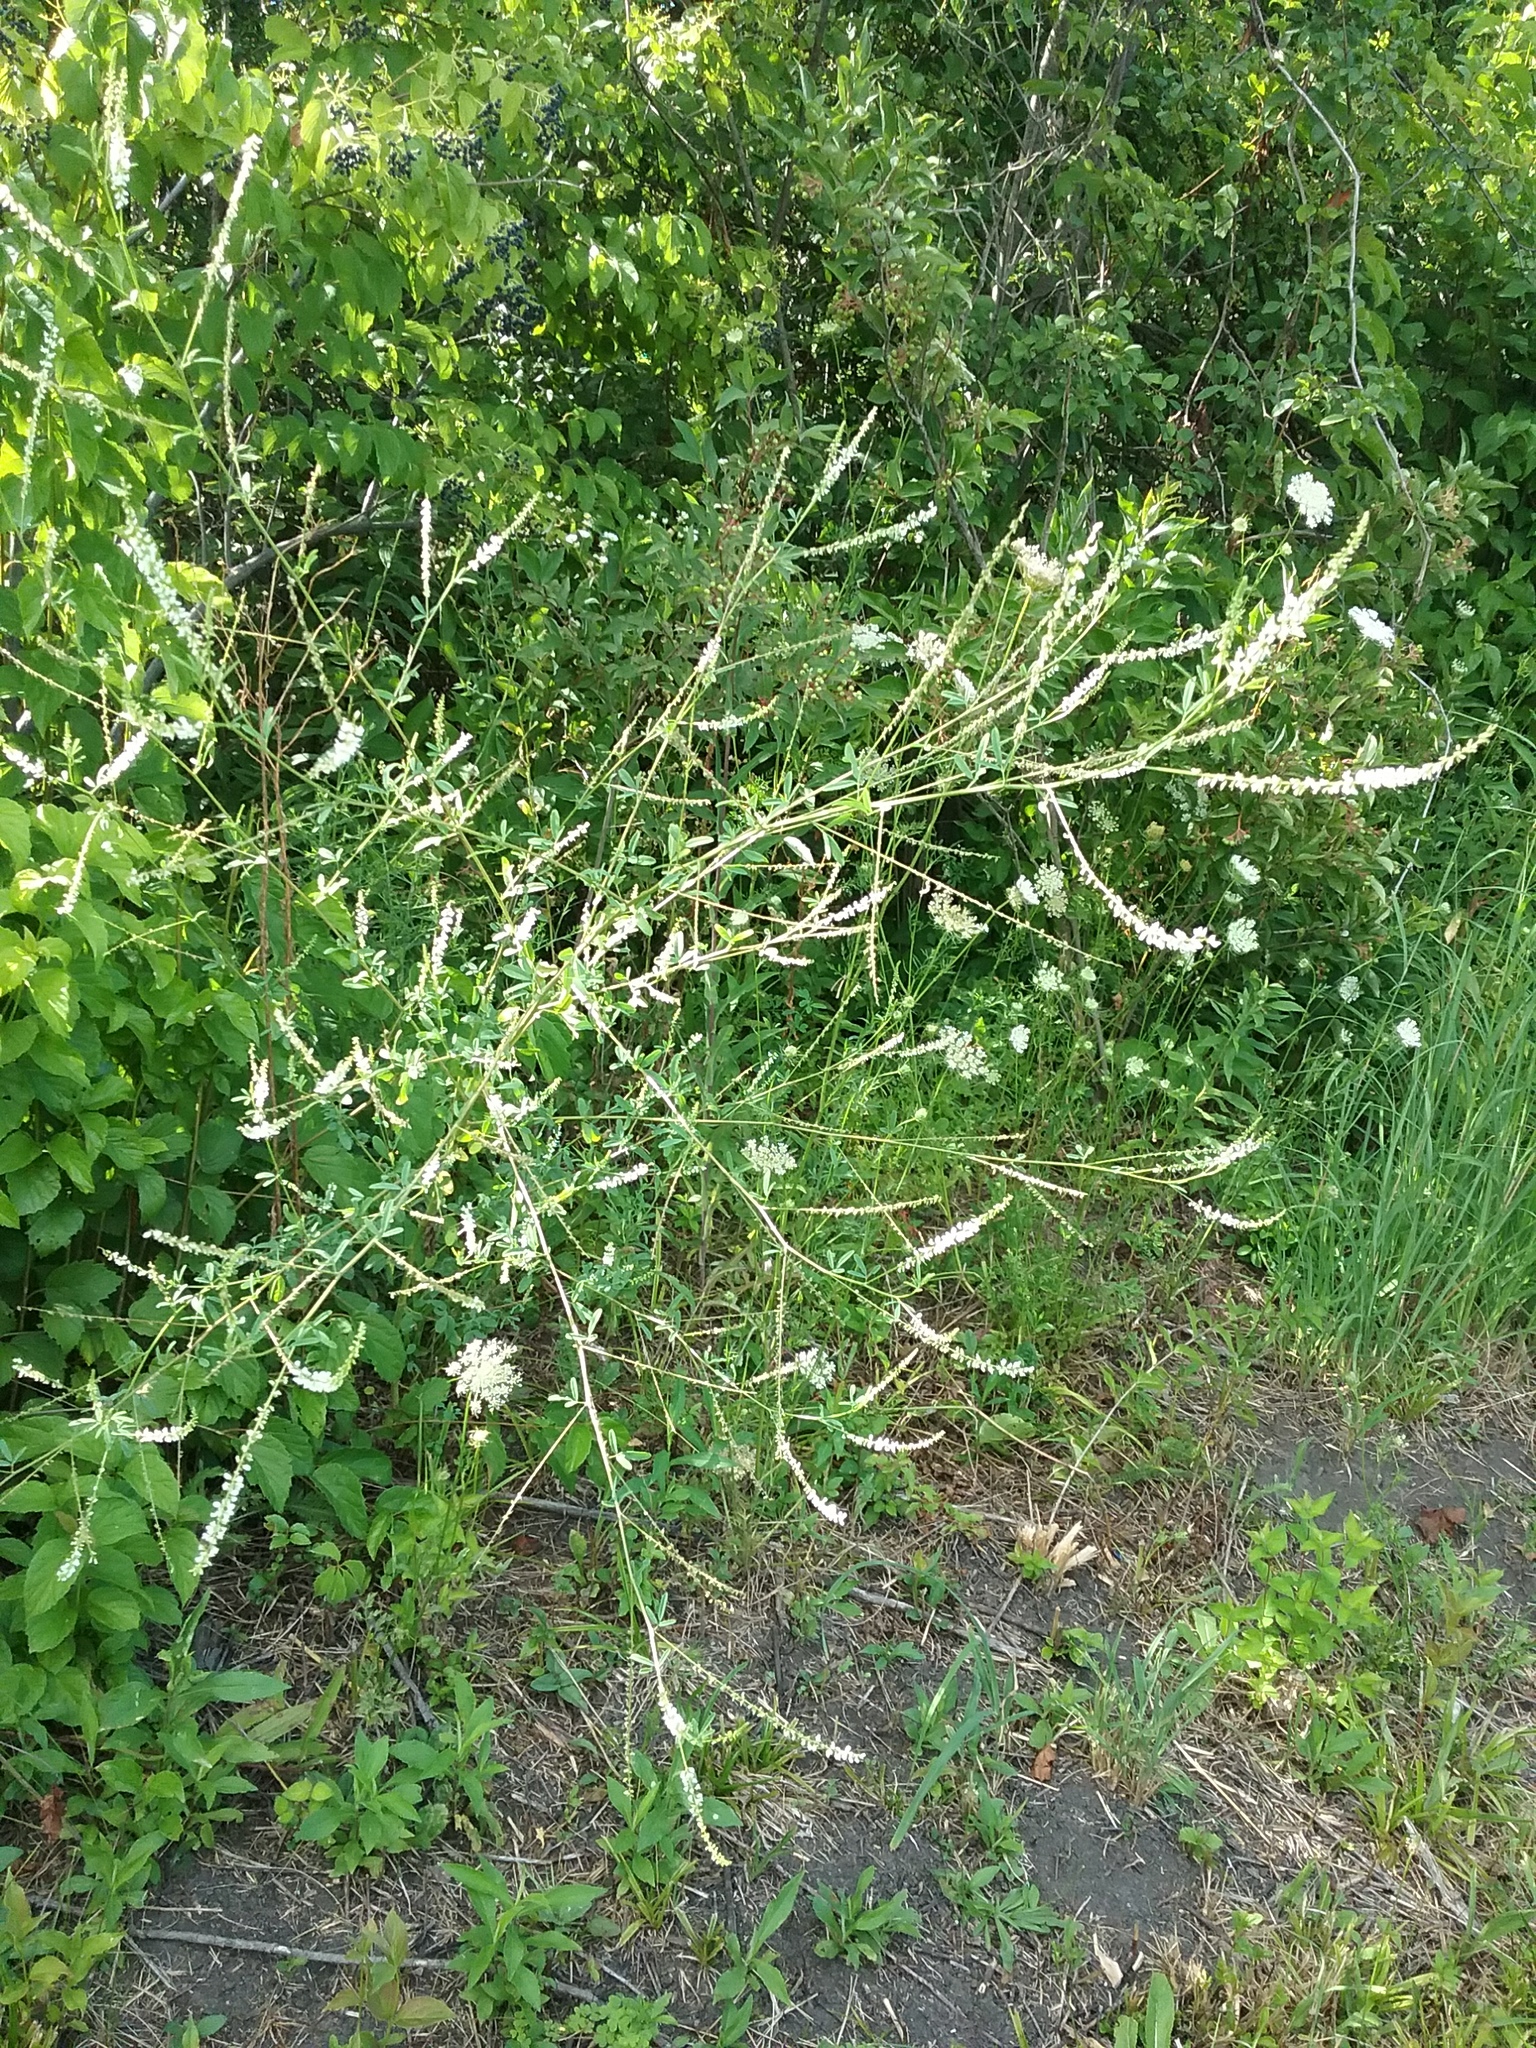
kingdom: Plantae
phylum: Tracheophyta
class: Magnoliopsida
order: Fabales
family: Fabaceae
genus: Melilotus
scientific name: Melilotus albus
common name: White melilot
